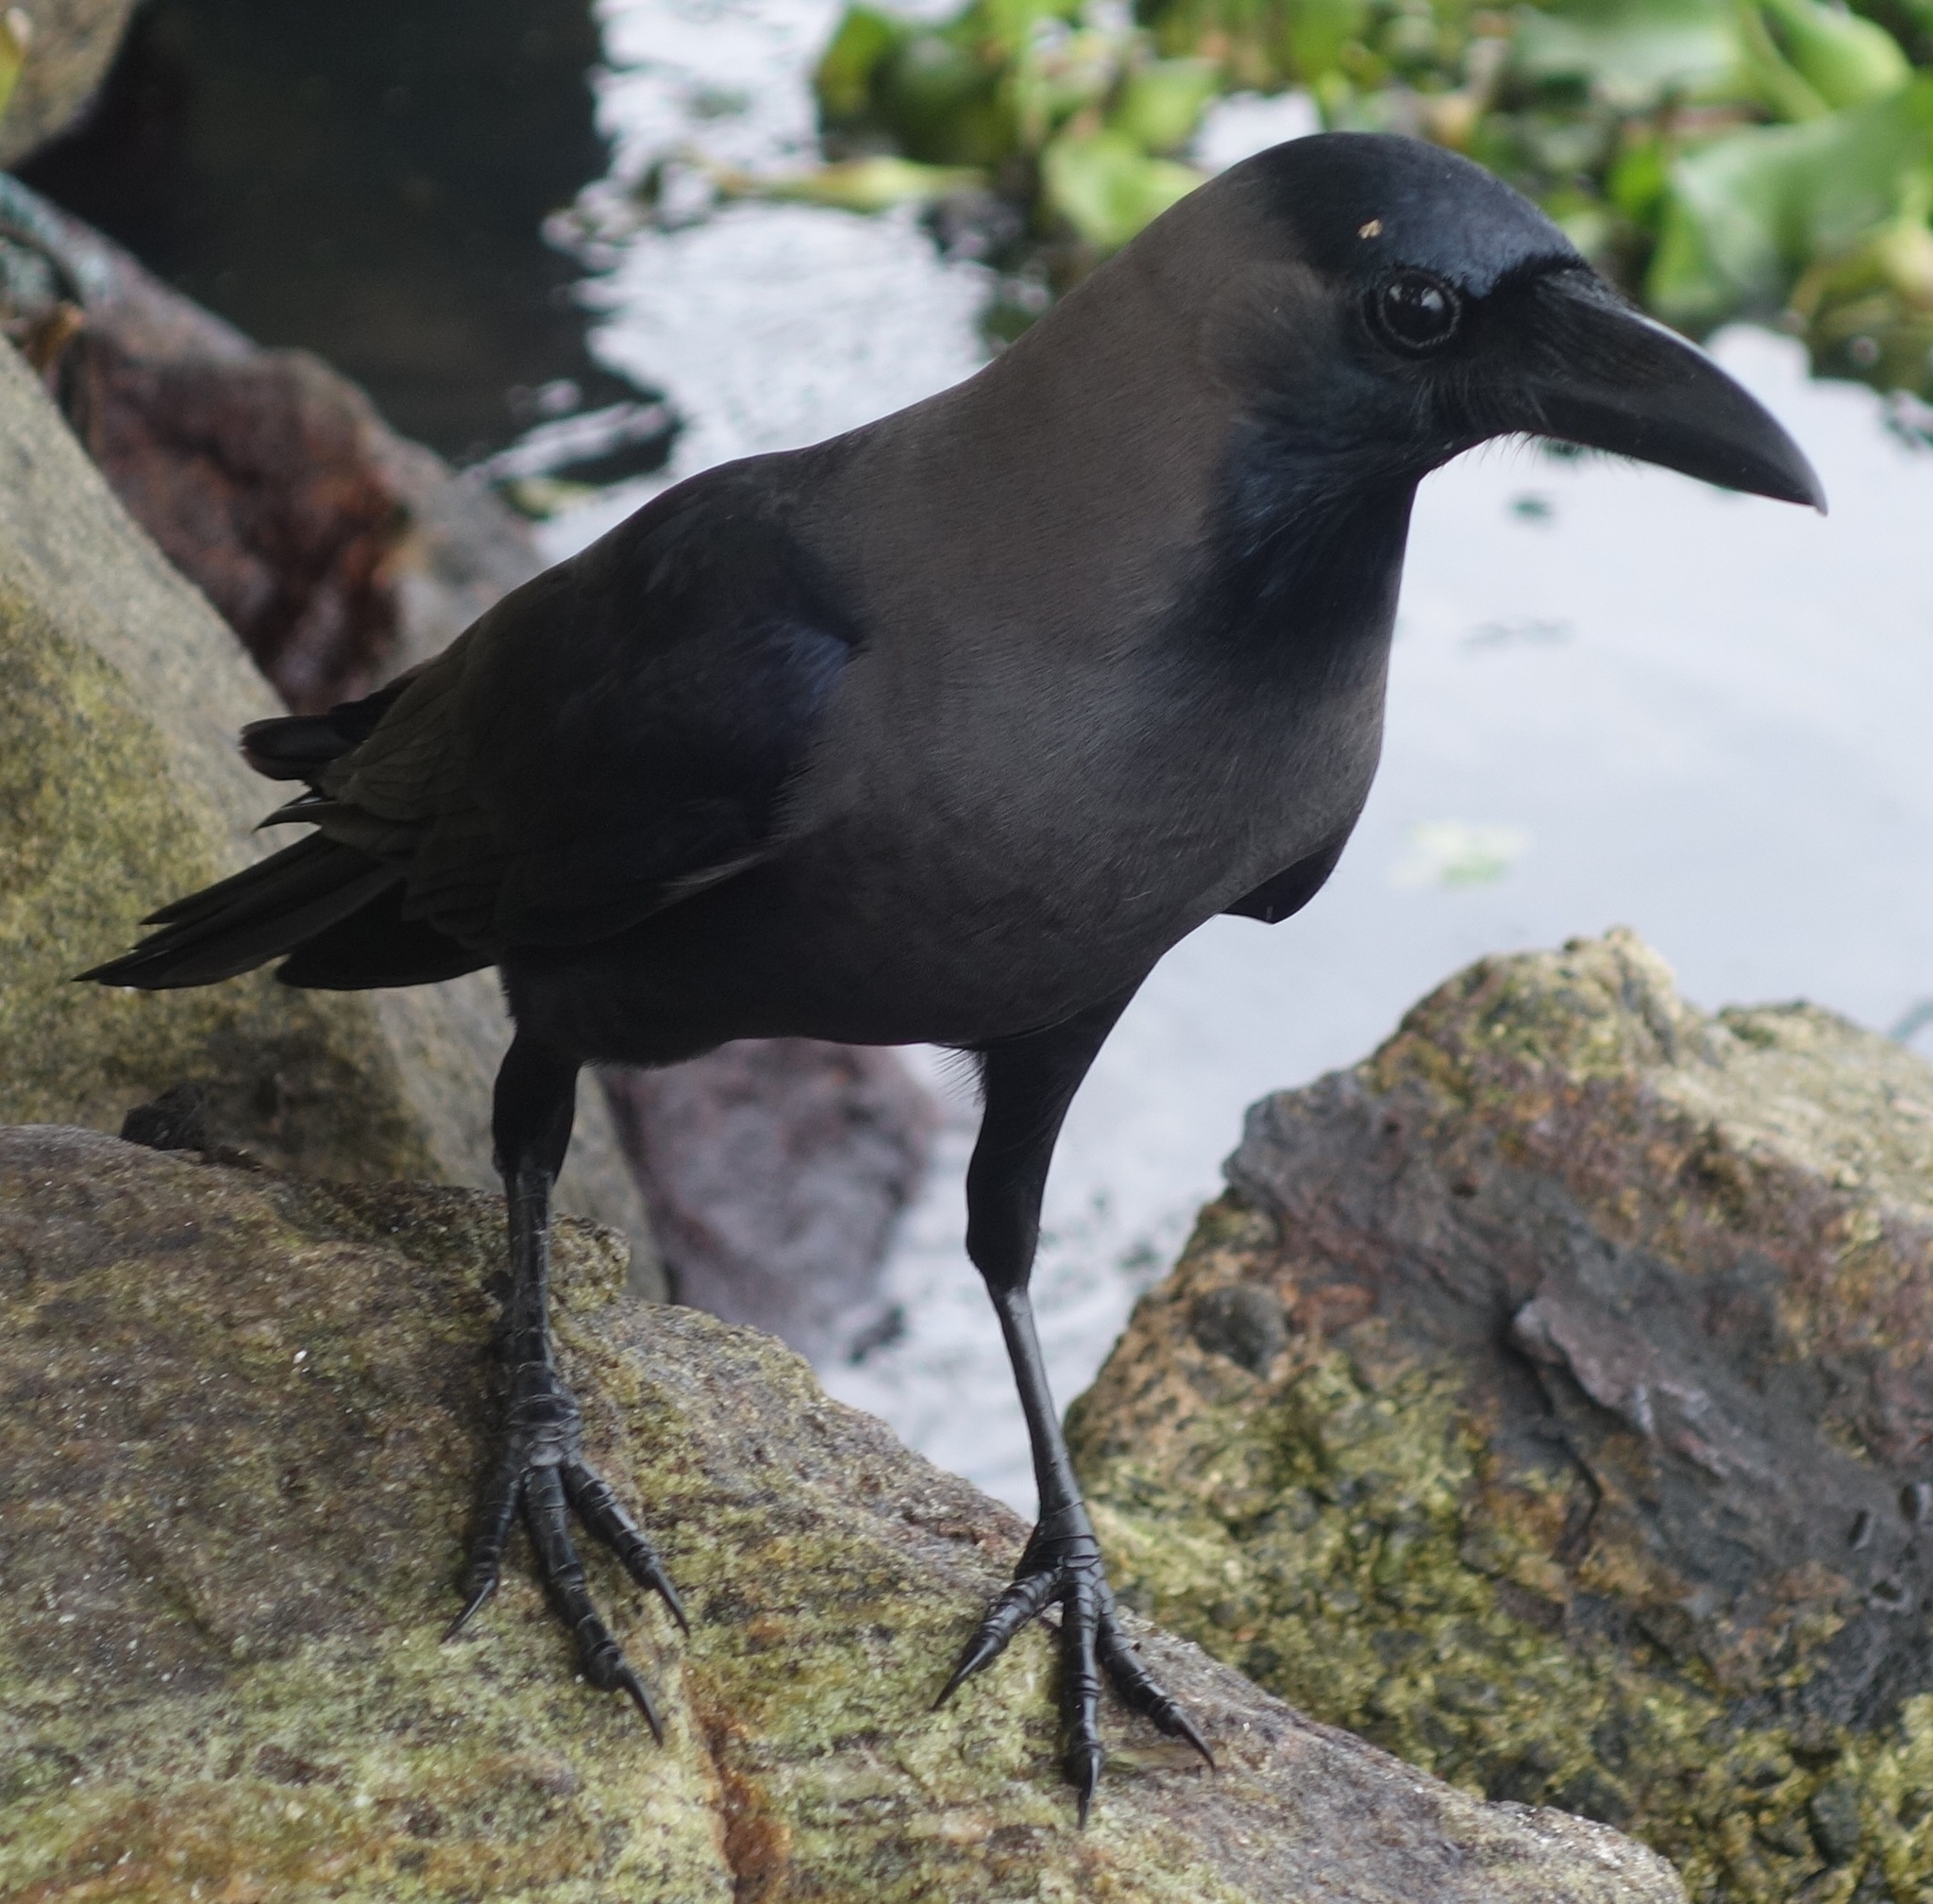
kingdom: Animalia
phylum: Chordata
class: Aves
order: Passeriformes
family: Corvidae
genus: Corvus
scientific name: Corvus splendens
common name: House crow
